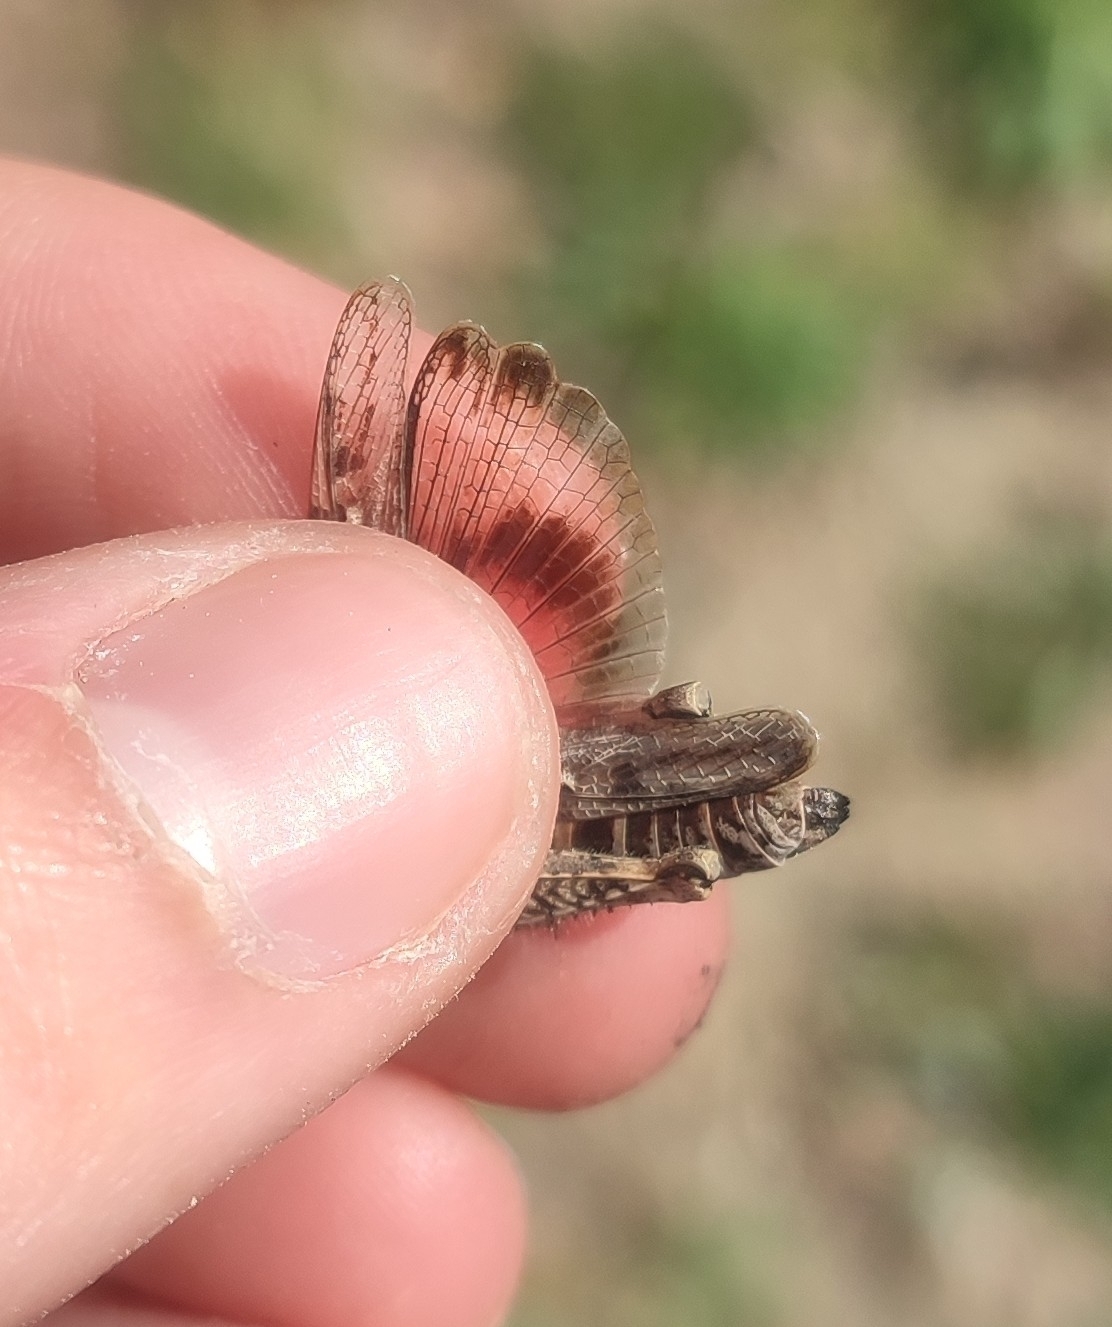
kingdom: Animalia
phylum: Arthropoda
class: Insecta
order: Orthoptera
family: Acrididae
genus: Acrotylus
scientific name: Acrotylus fischeri
